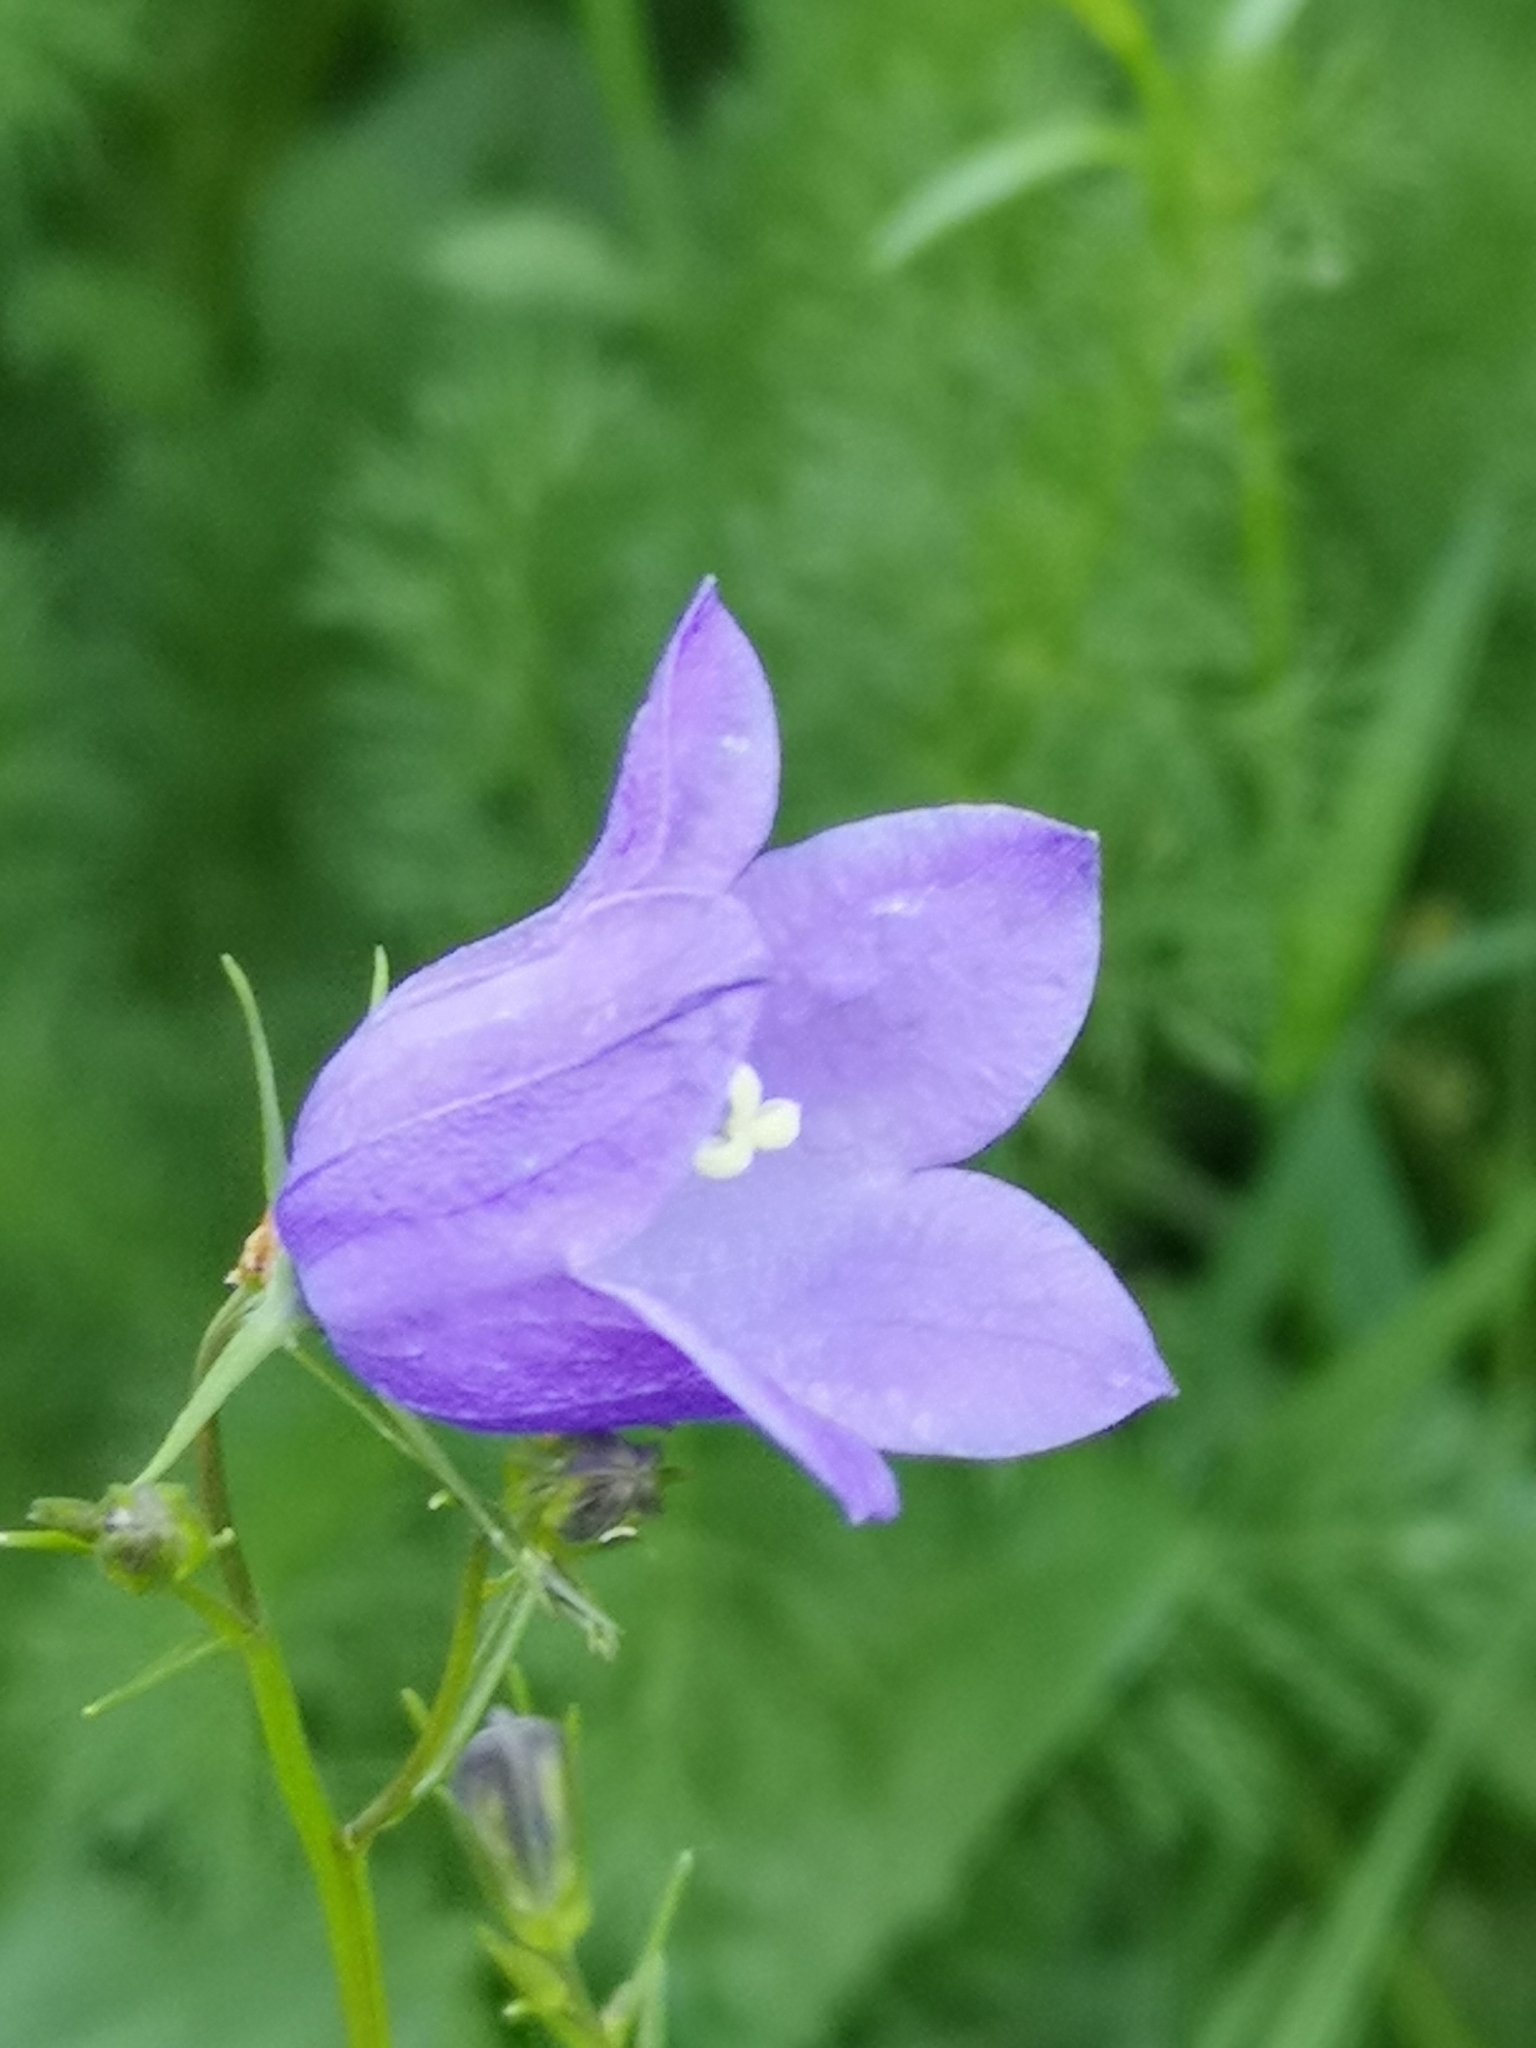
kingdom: Plantae
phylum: Tracheophyta
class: Magnoliopsida
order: Asterales
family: Campanulaceae
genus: Campanula
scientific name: Campanula rotundifolia
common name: Harebell
